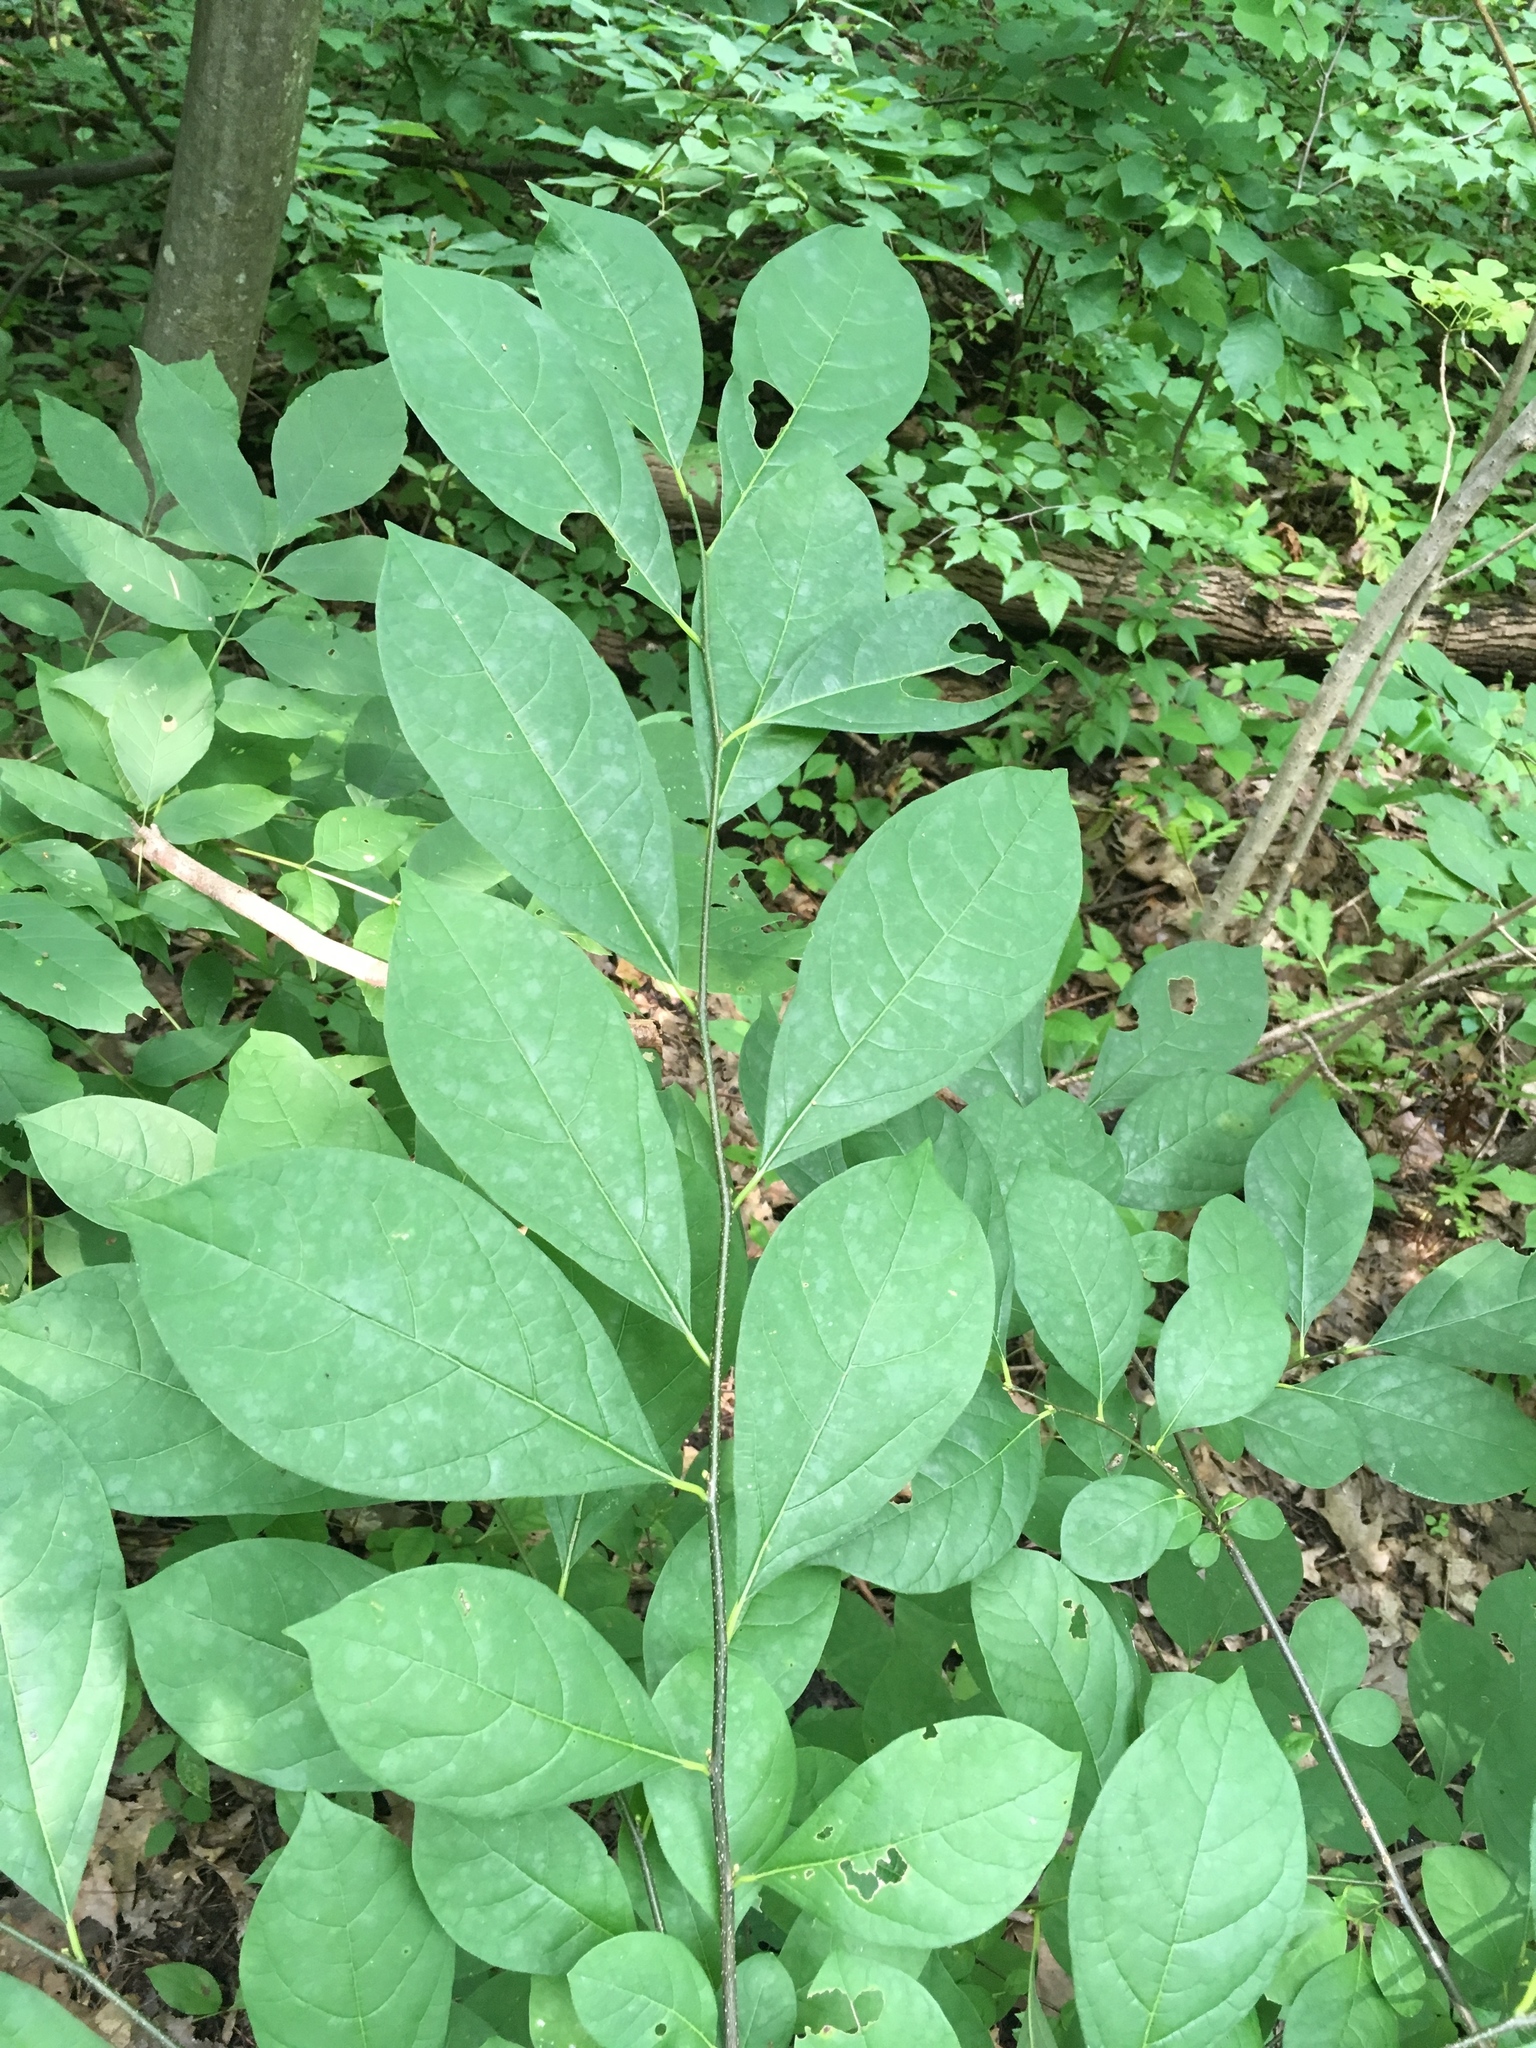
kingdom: Plantae
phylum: Tracheophyta
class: Magnoliopsida
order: Laurales
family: Lauraceae
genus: Lindera
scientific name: Lindera benzoin
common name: Spicebush
